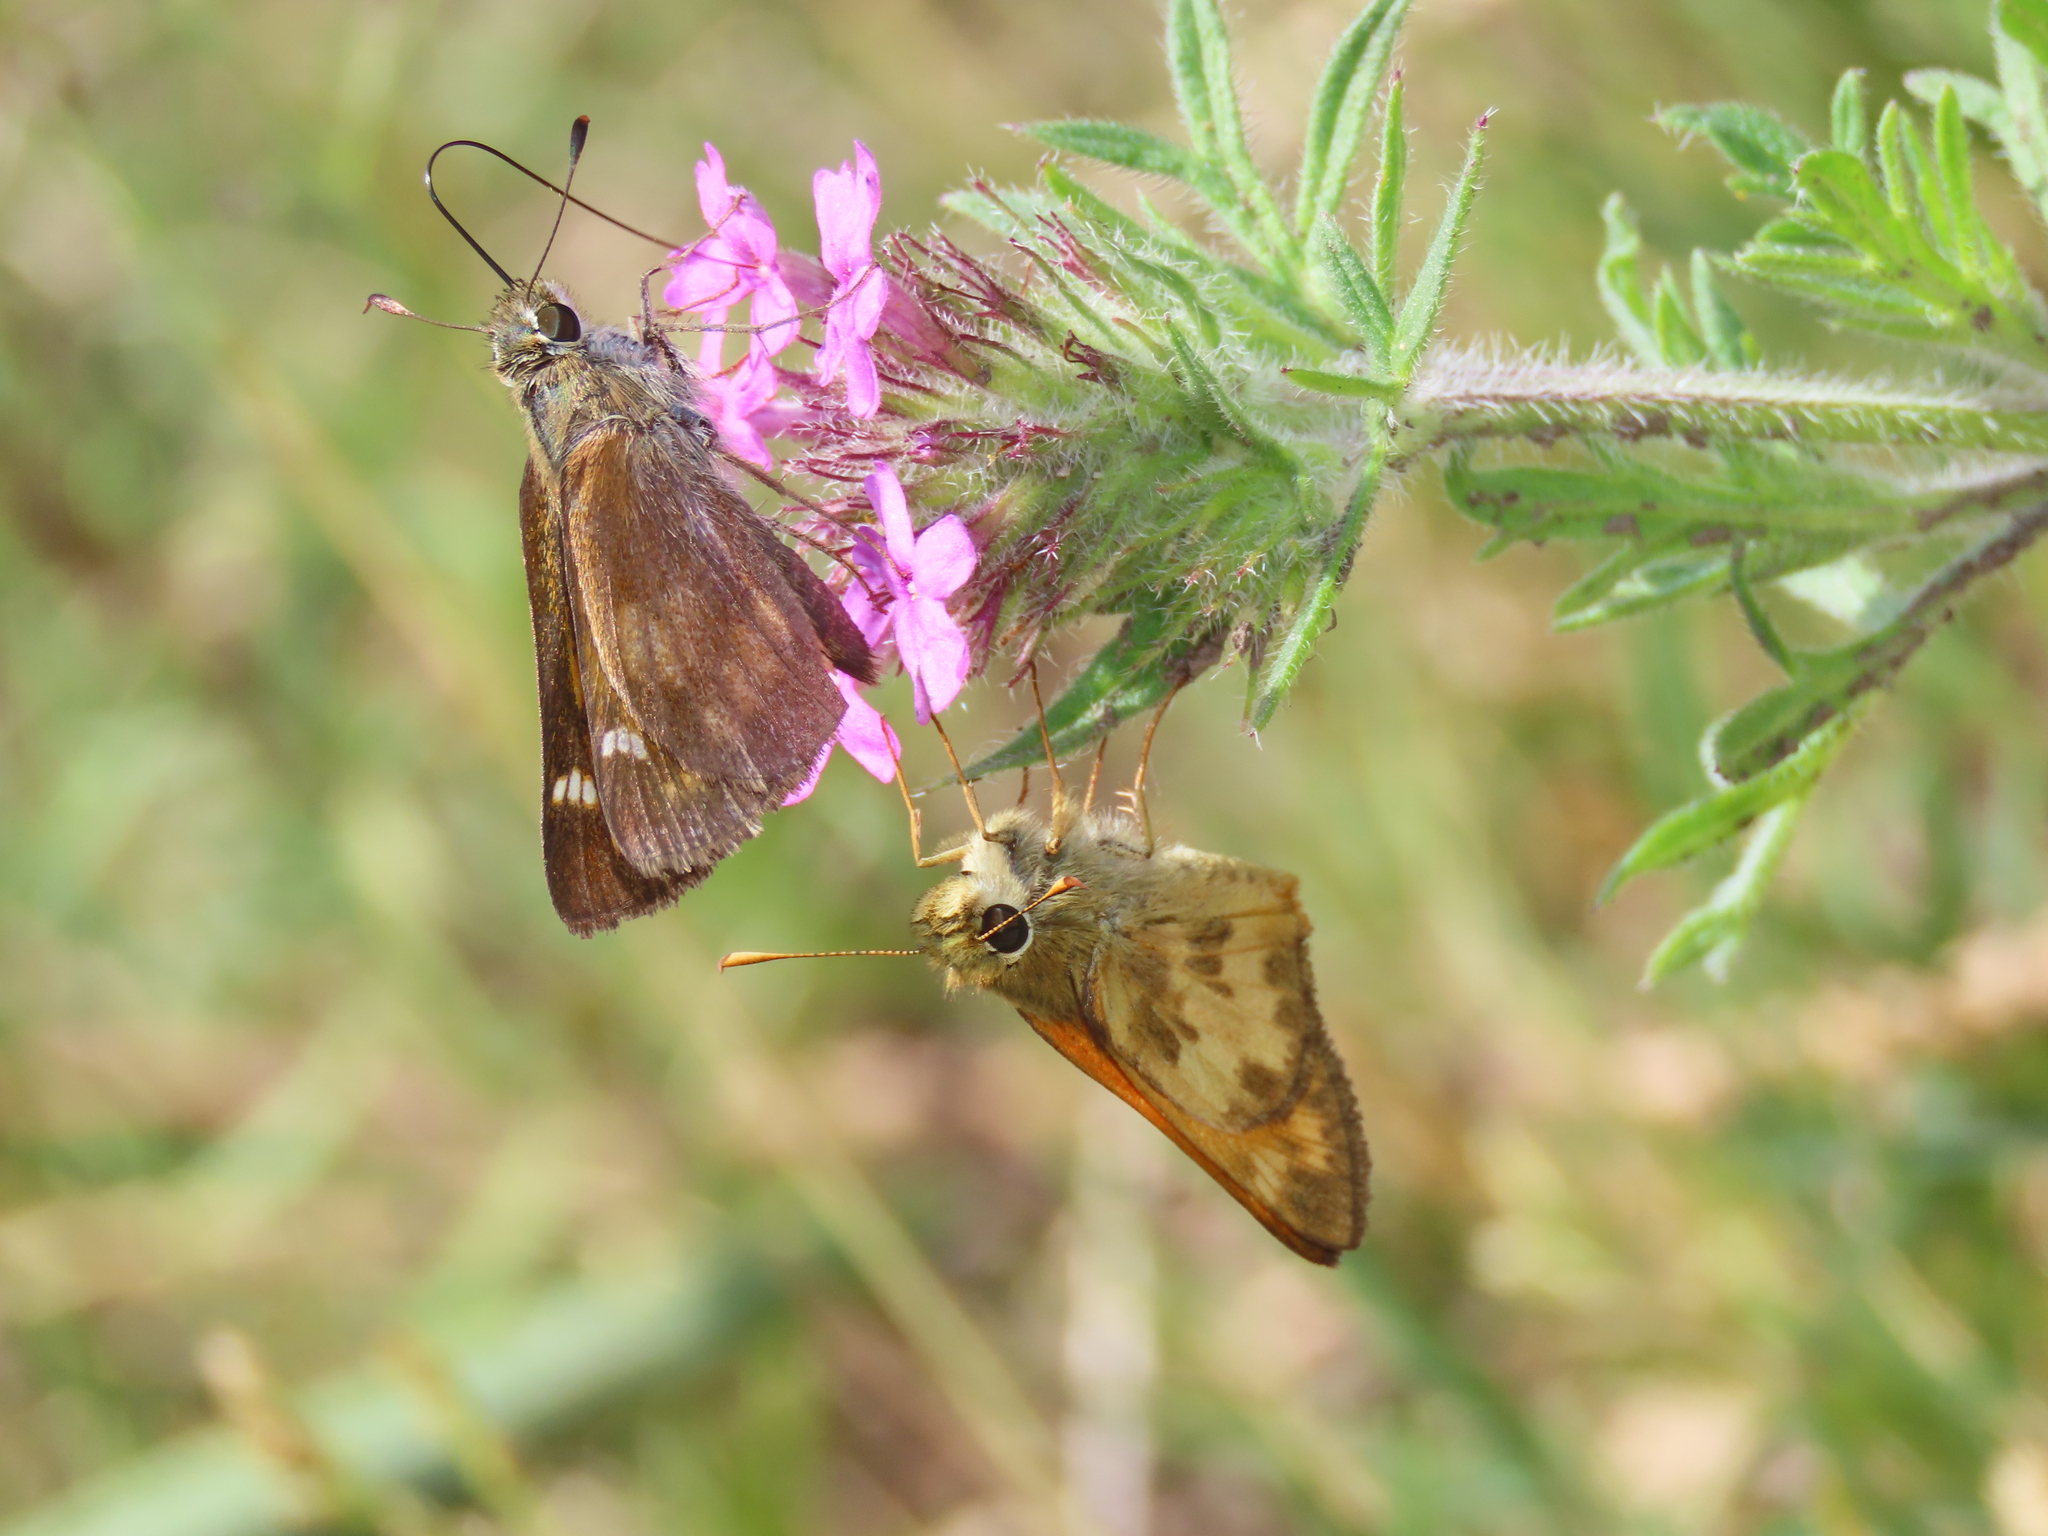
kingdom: Animalia
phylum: Arthropoda
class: Insecta
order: Lepidoptera
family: Hesperiidae
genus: Lon
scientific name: Lon taxiles
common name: Taxiles skipper
